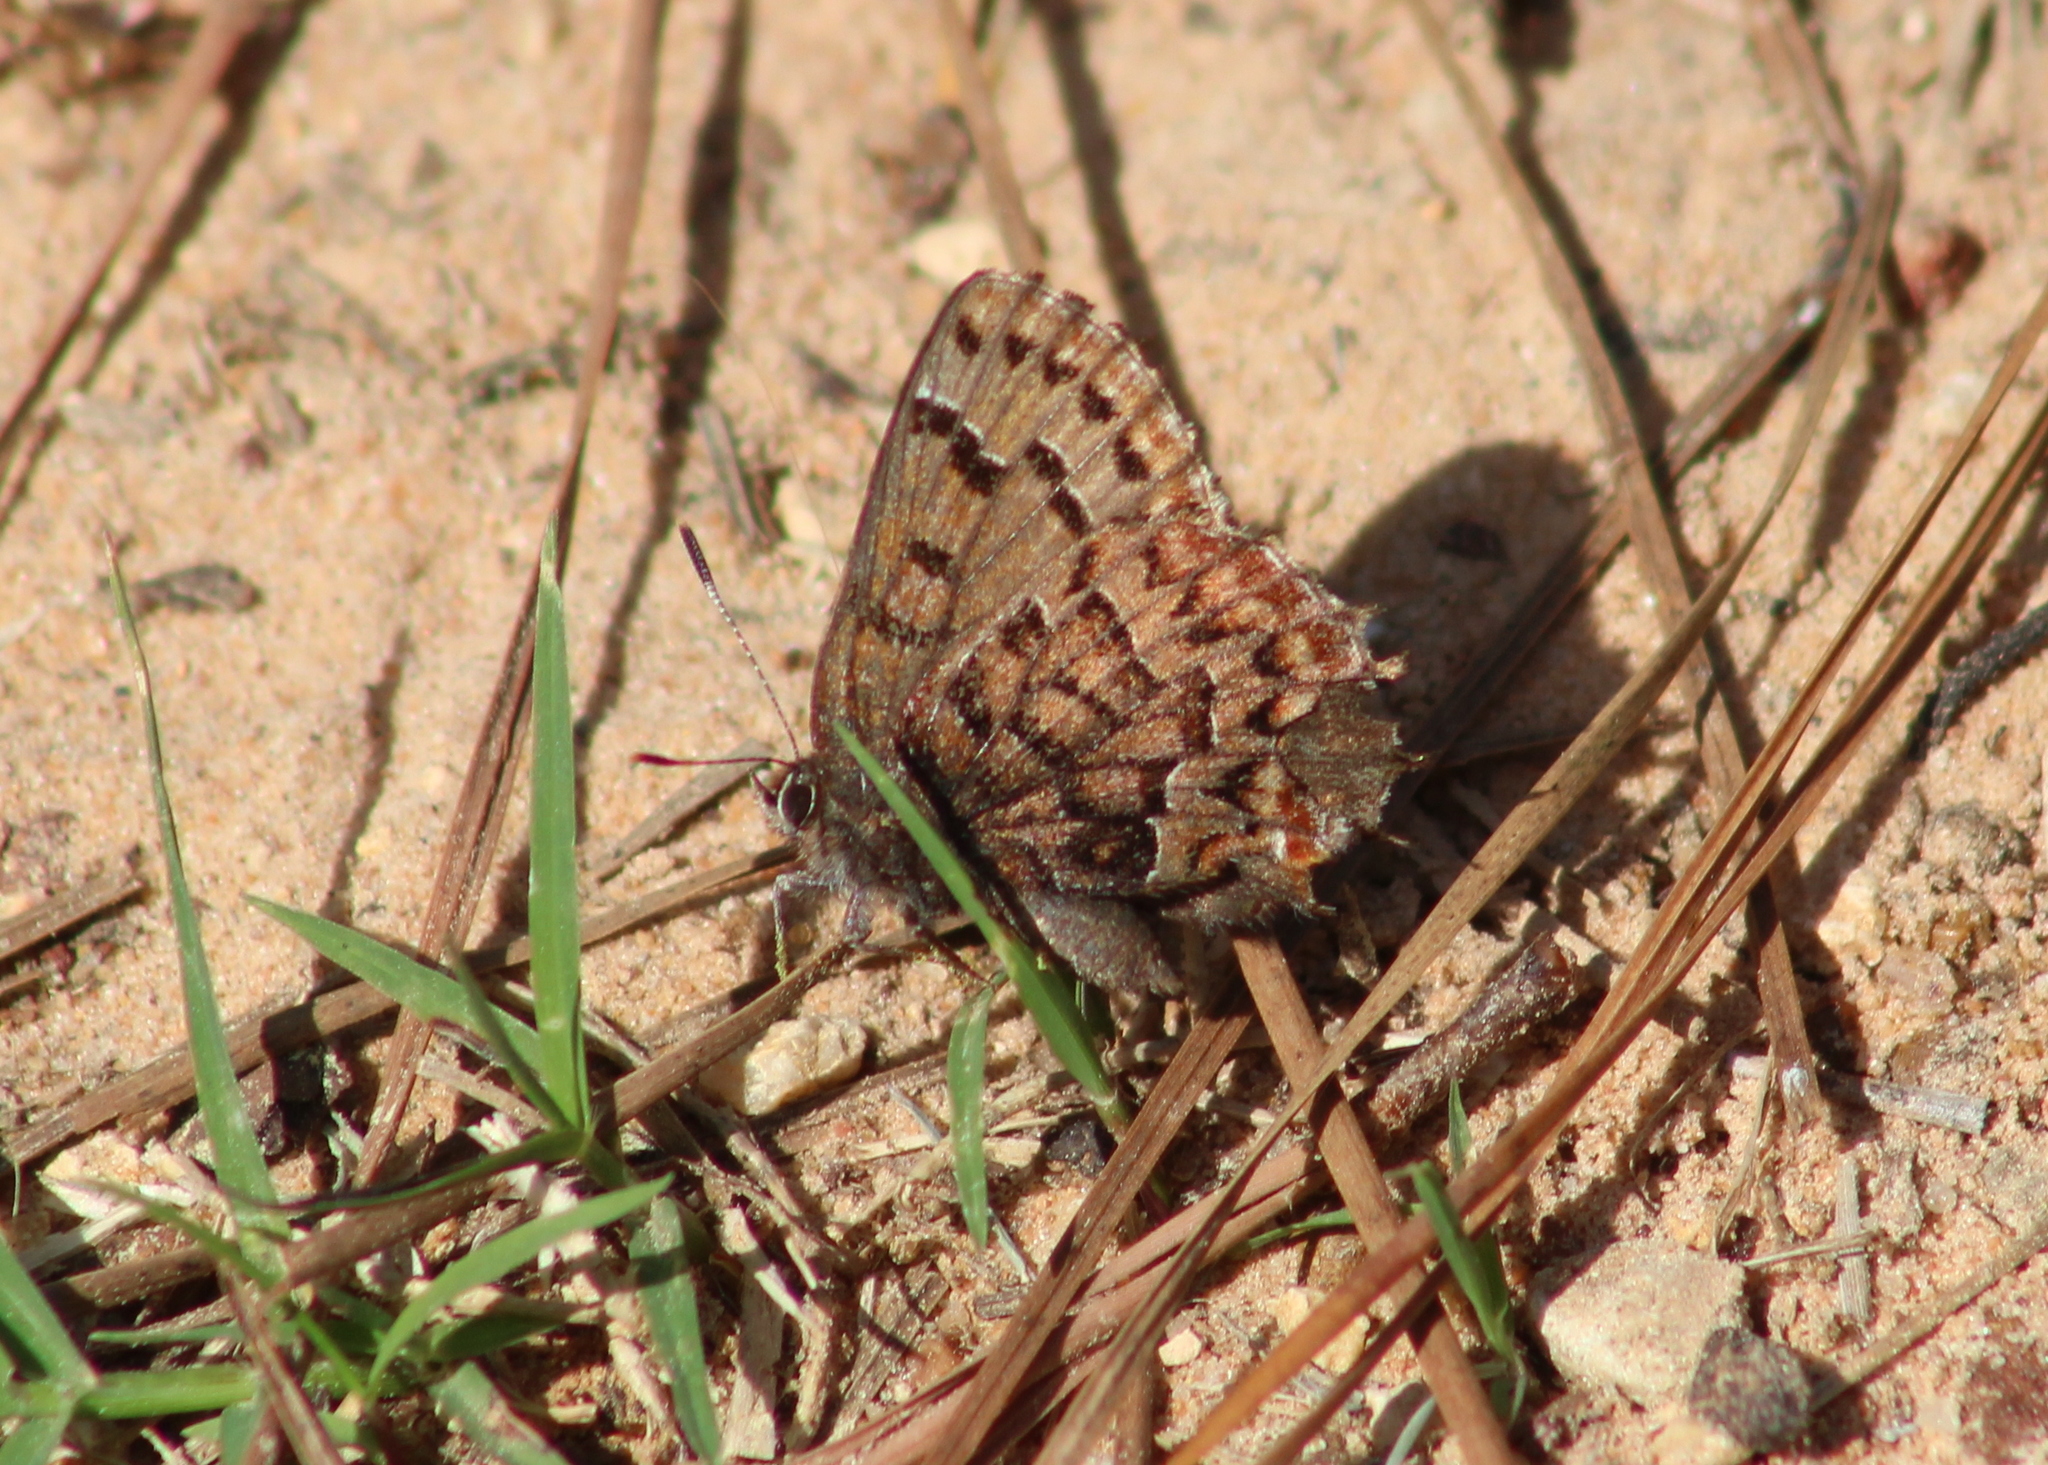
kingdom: Animalia
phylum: Arthropoda
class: Insecta
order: Lepidoptera
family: Lycaenidae
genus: Incisalia
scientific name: Incisalia niphon
